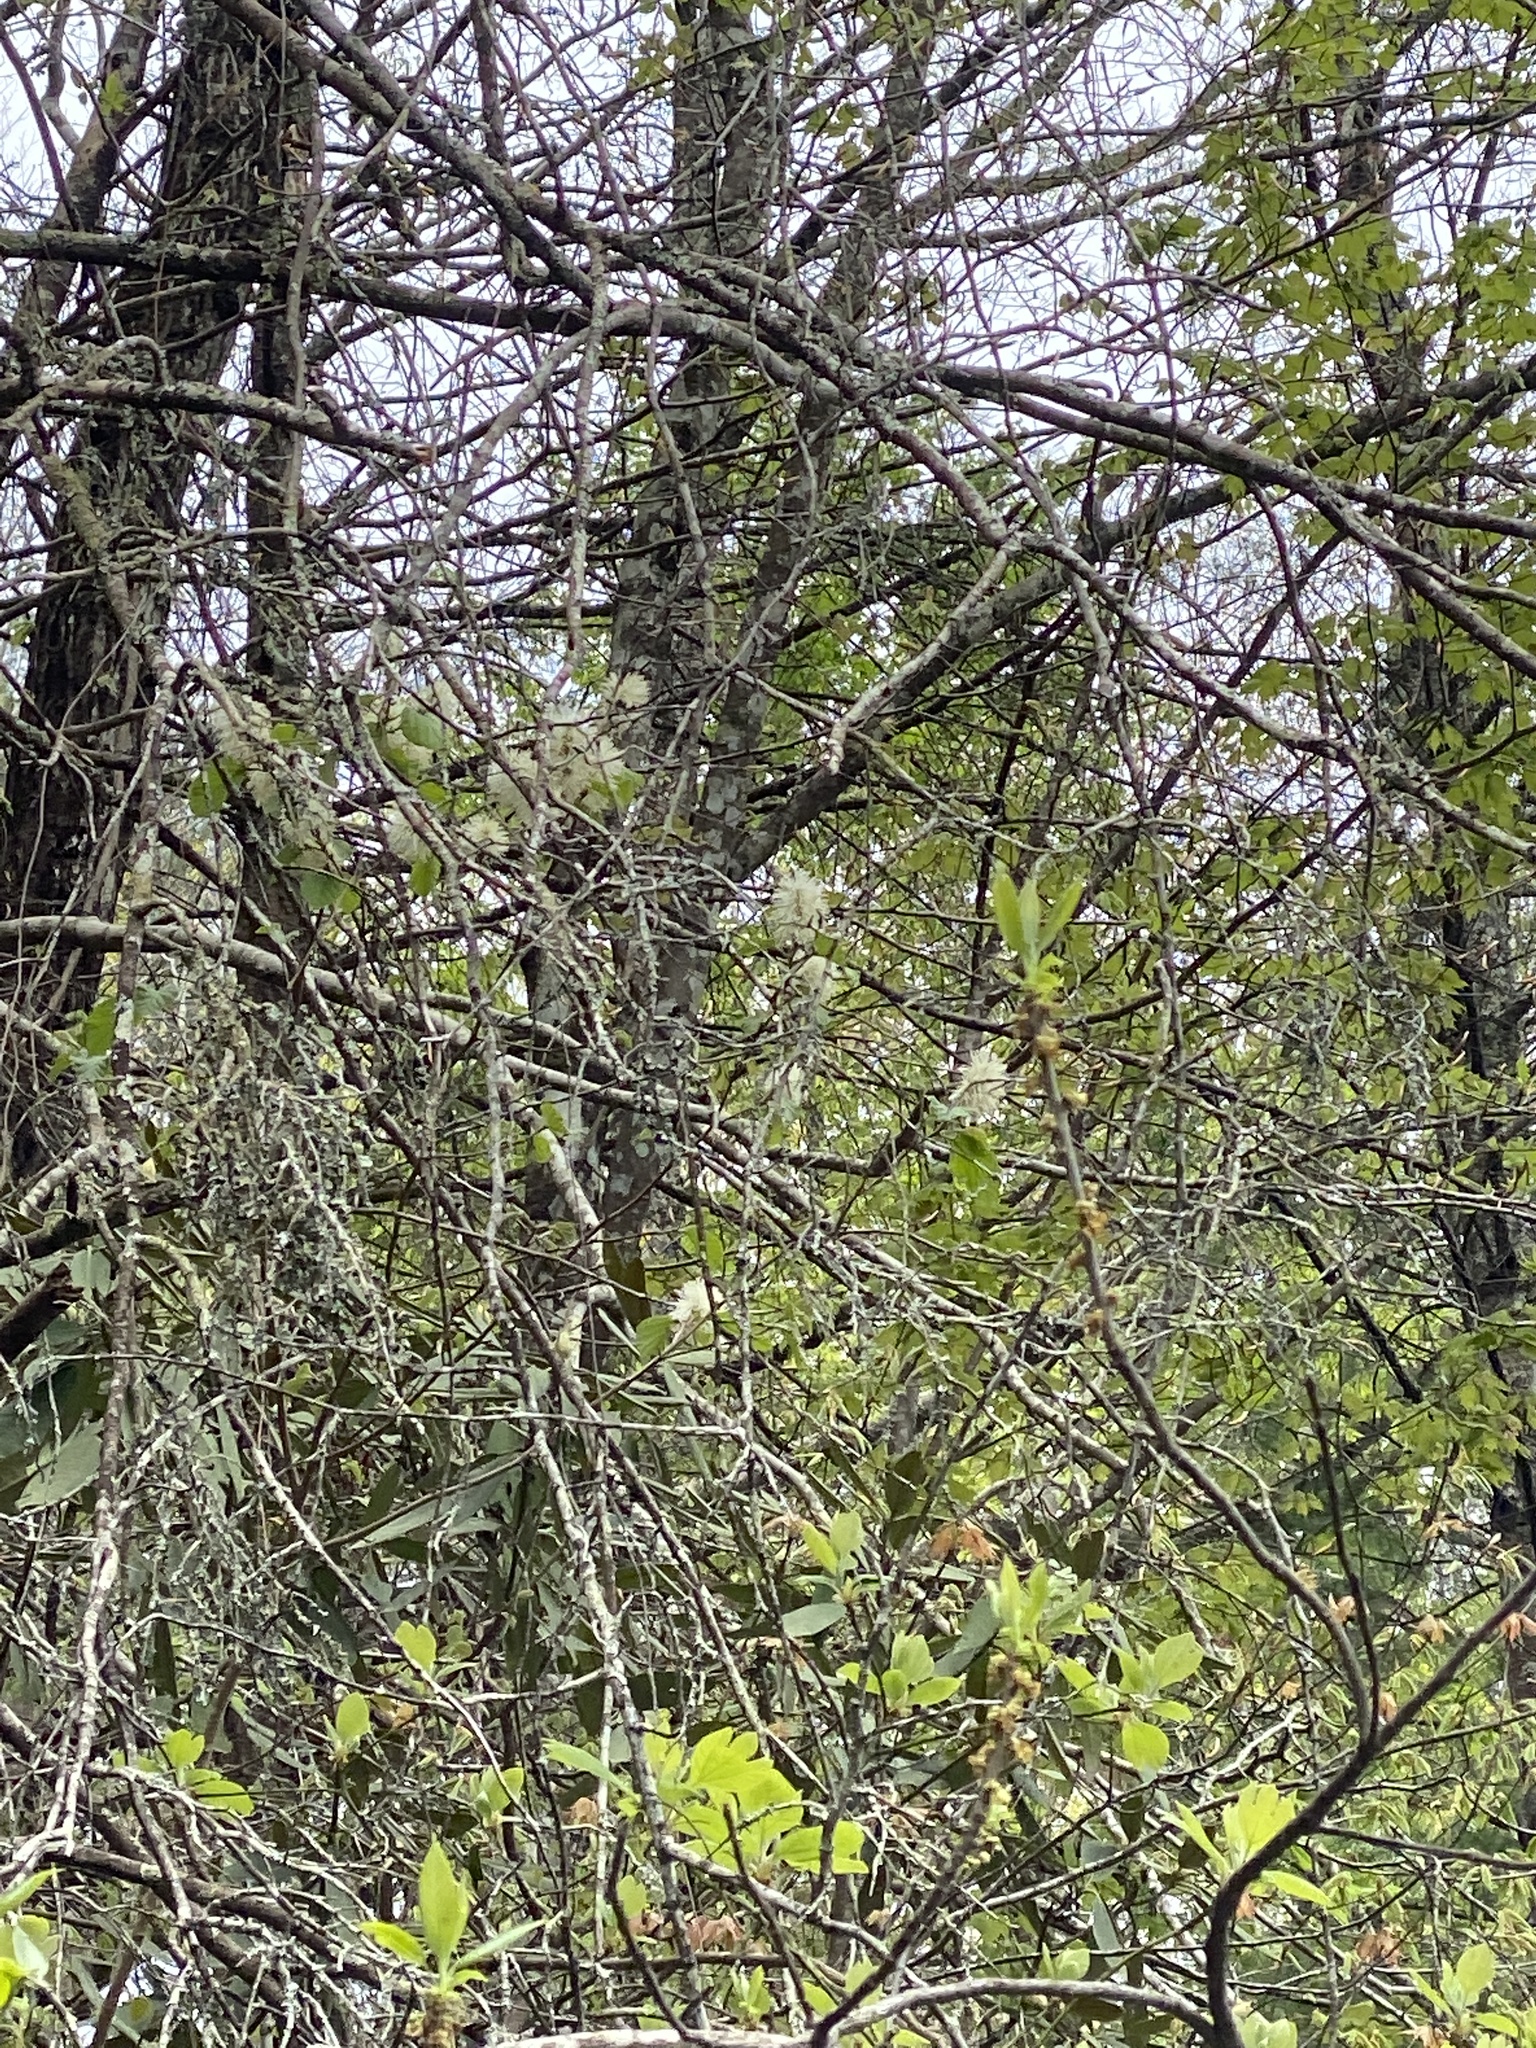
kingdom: Plantae
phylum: Tracheophyta
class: Magnoliopsida
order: Saxifragales
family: Hamamelidaceae
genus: Fothergilla
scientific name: Fothergilla latifolia
